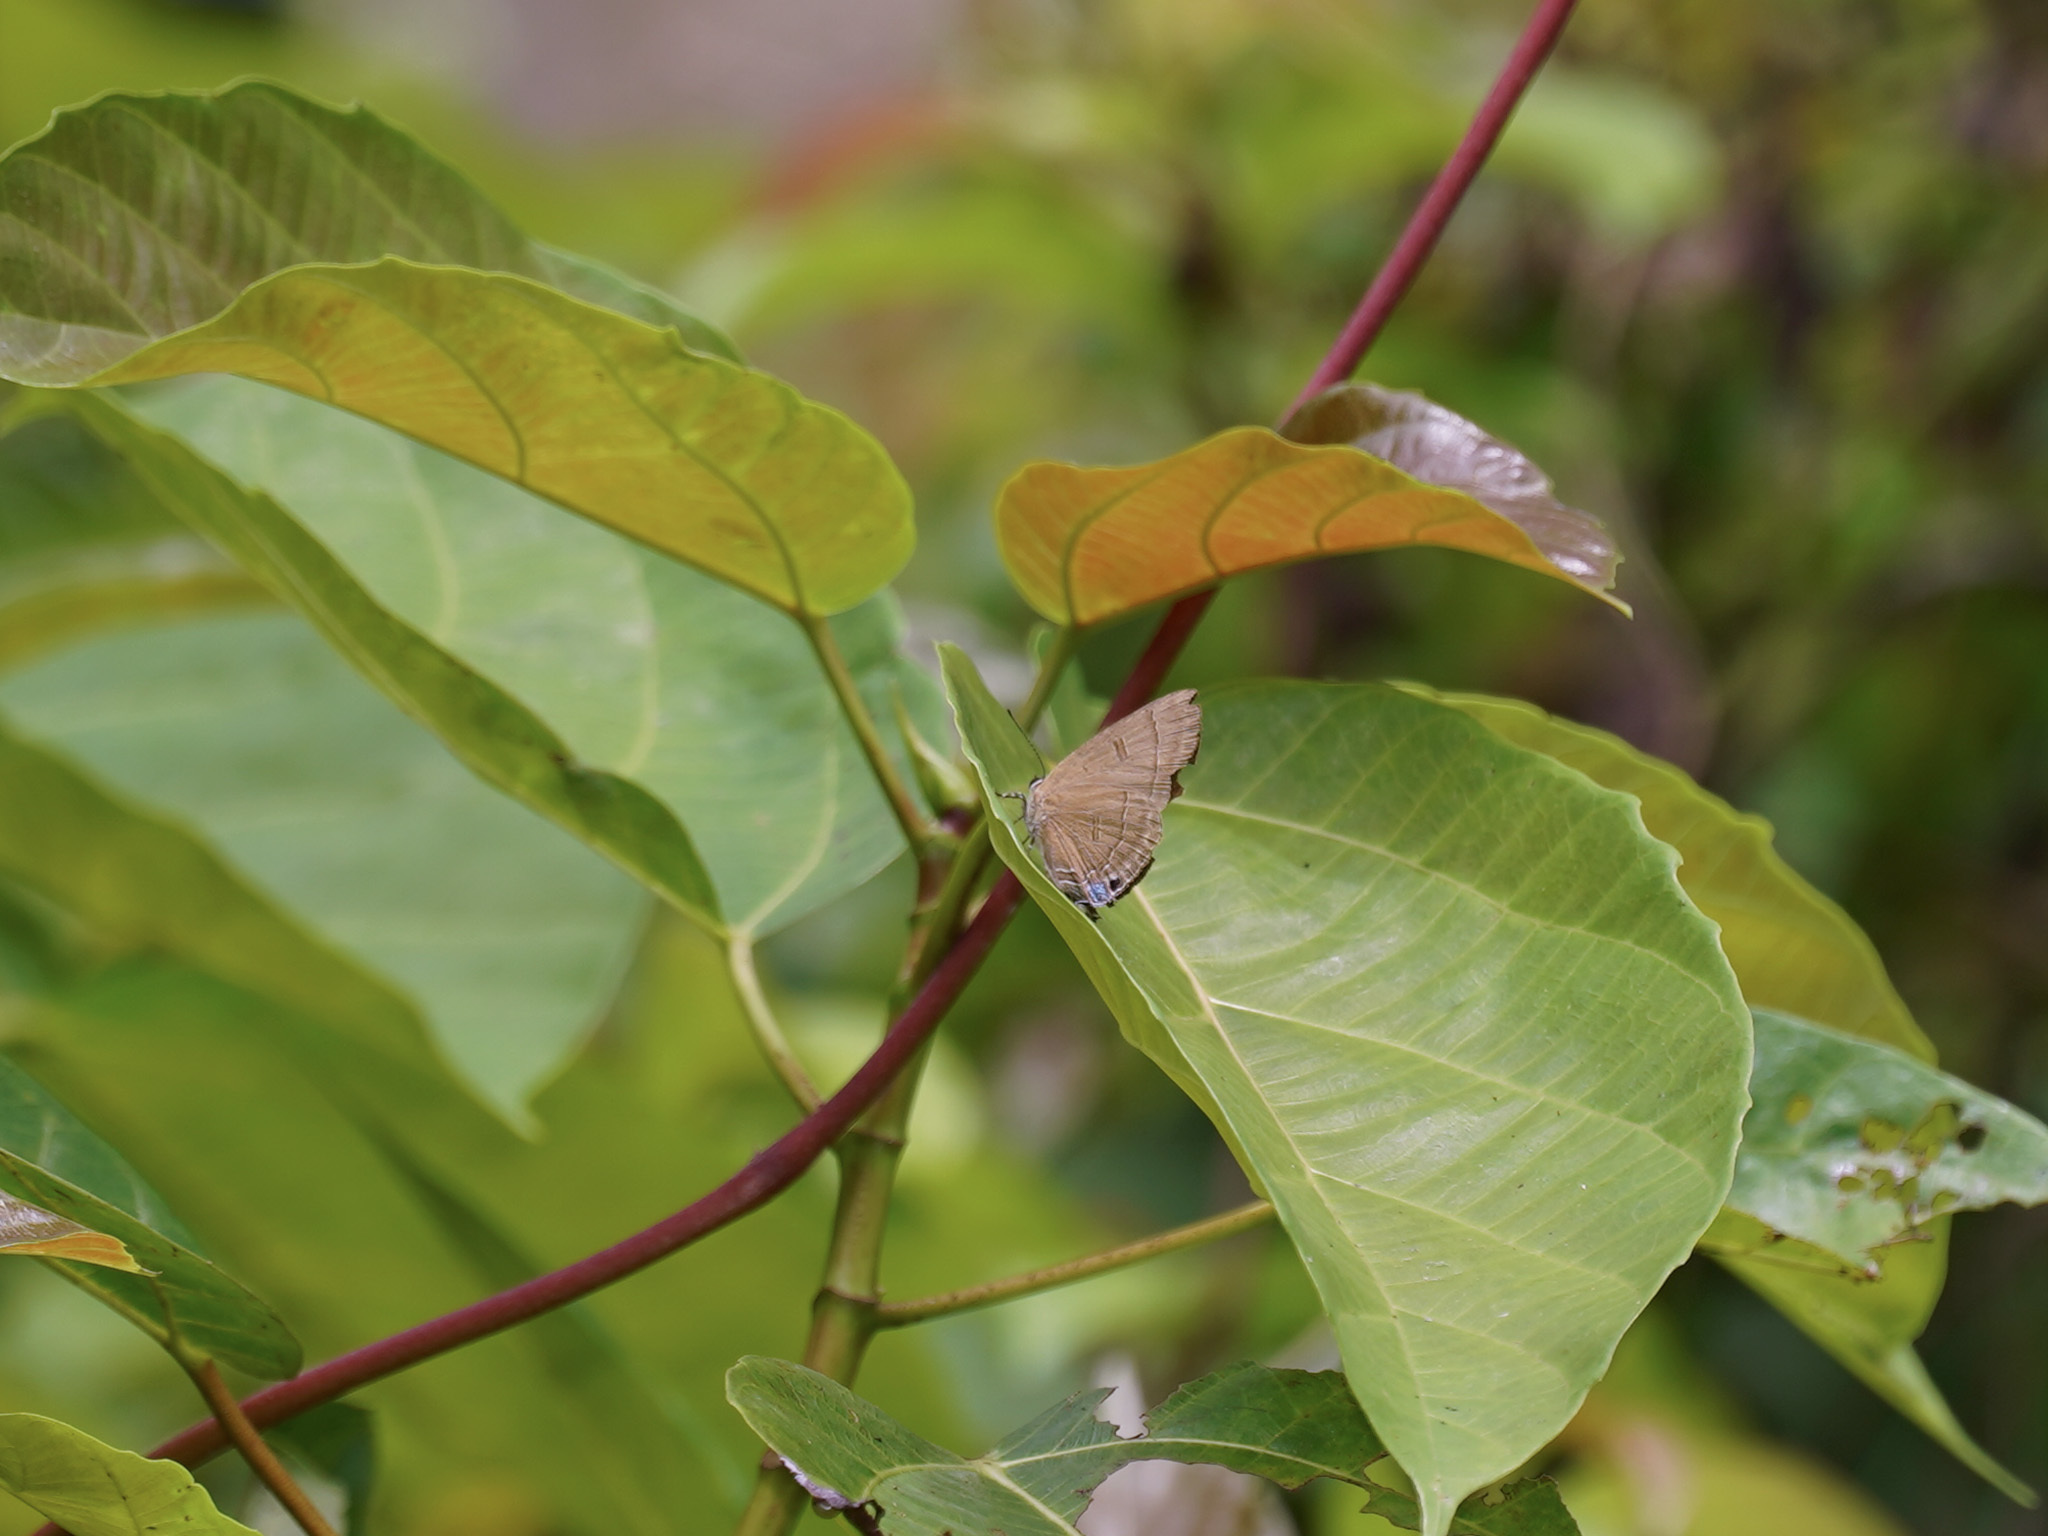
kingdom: Animalia
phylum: Arthropoda
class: Insecta
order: Lepidoptera
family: Lycaenidae
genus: Rapala
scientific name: Rapala pheretima
